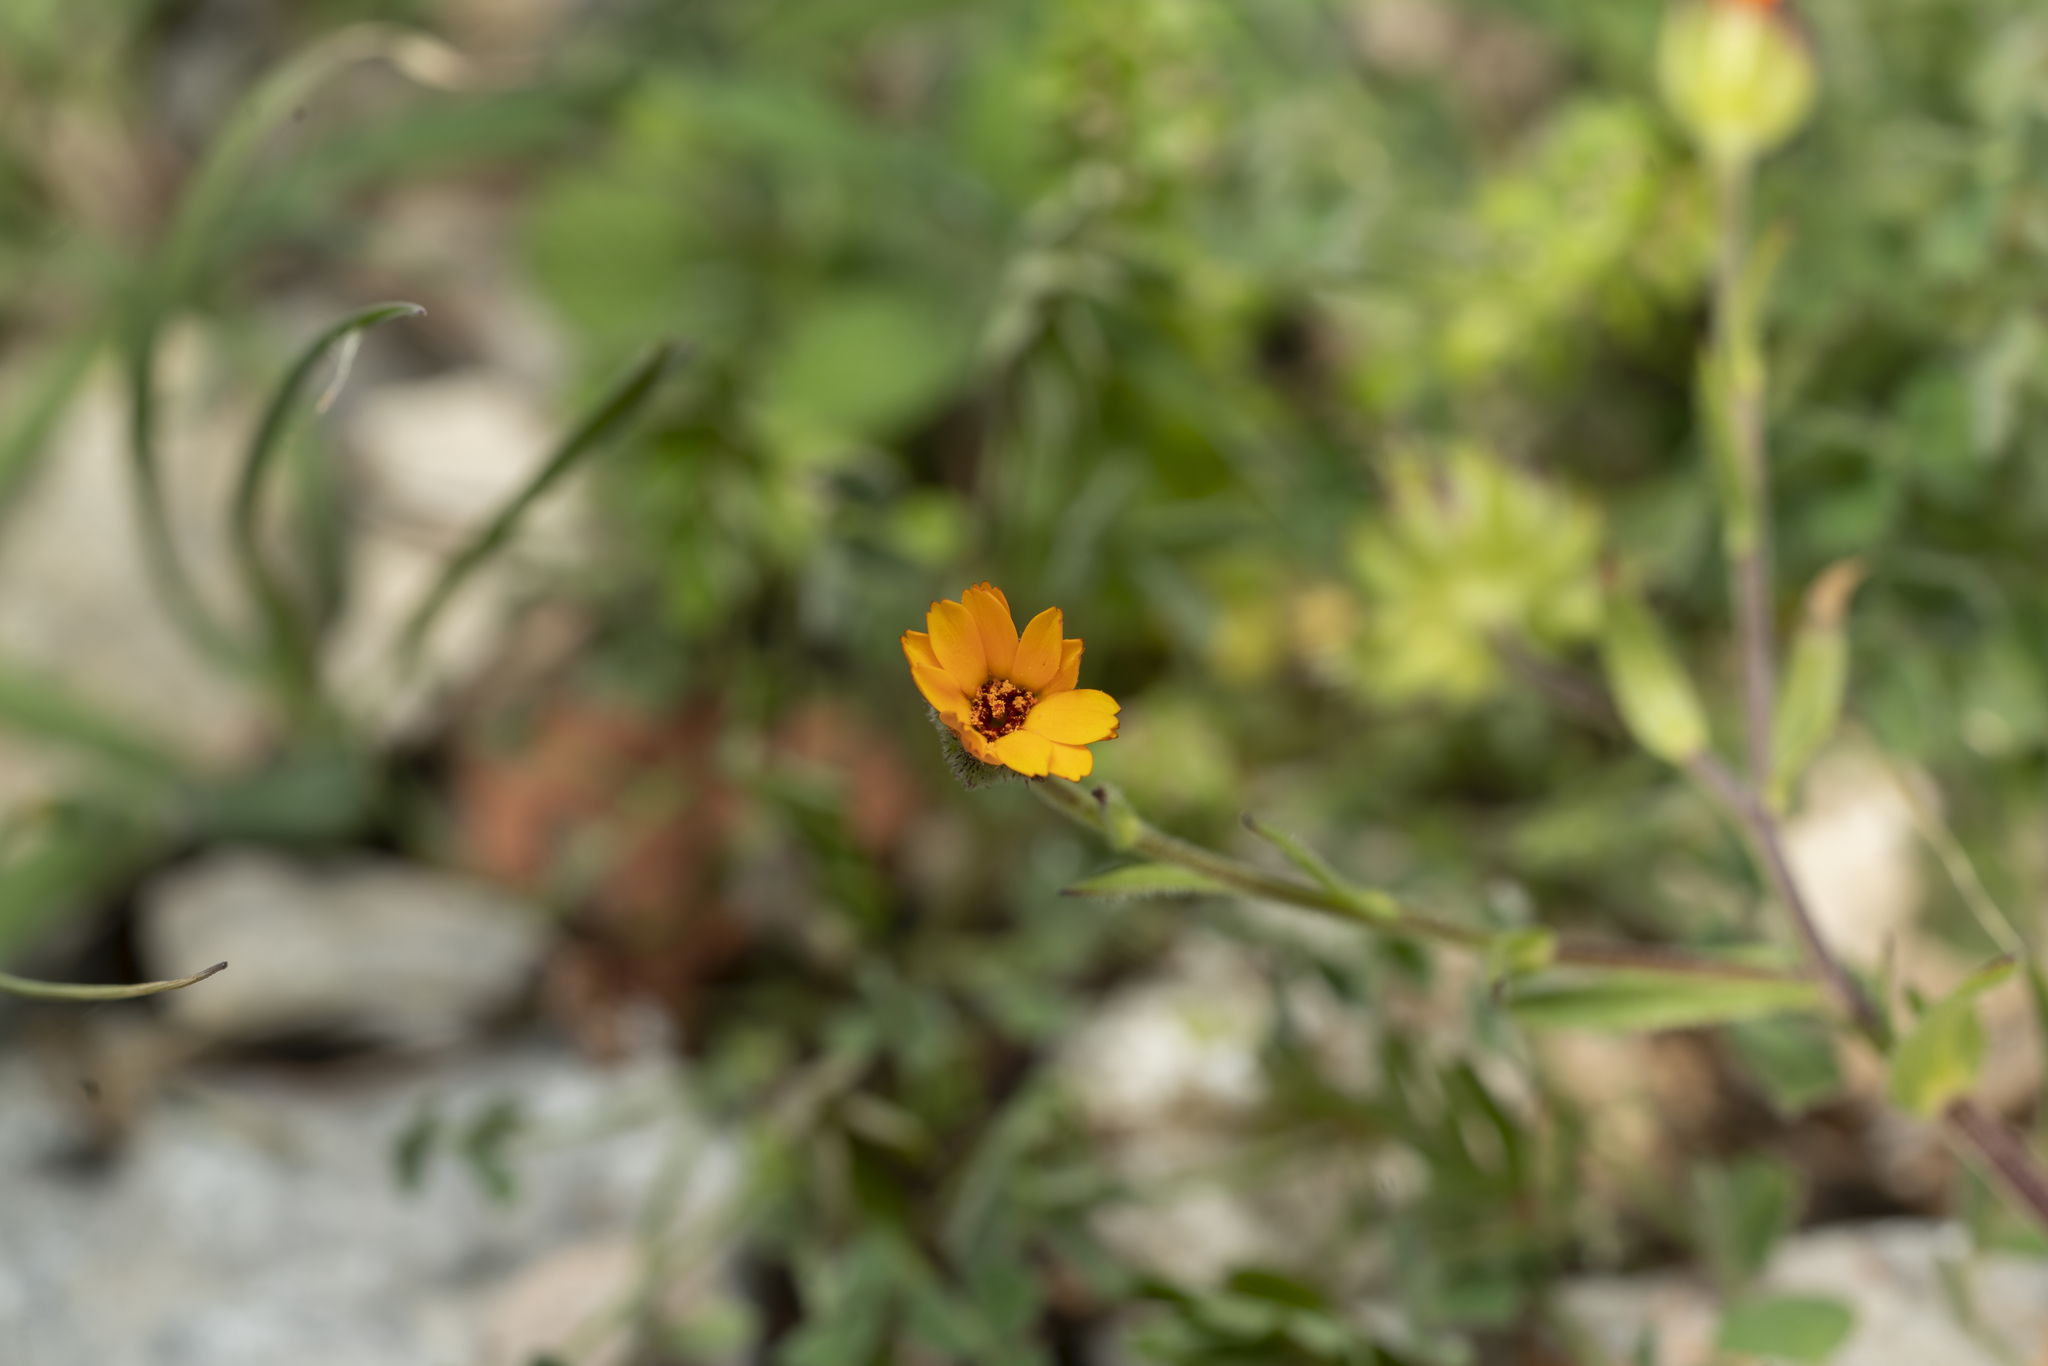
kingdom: Plantae
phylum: Tracheophyta
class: Magnoliopsida
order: Asterales
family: Asteraceae
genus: Calendula
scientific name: Calendula arvensis
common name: Field marigold
